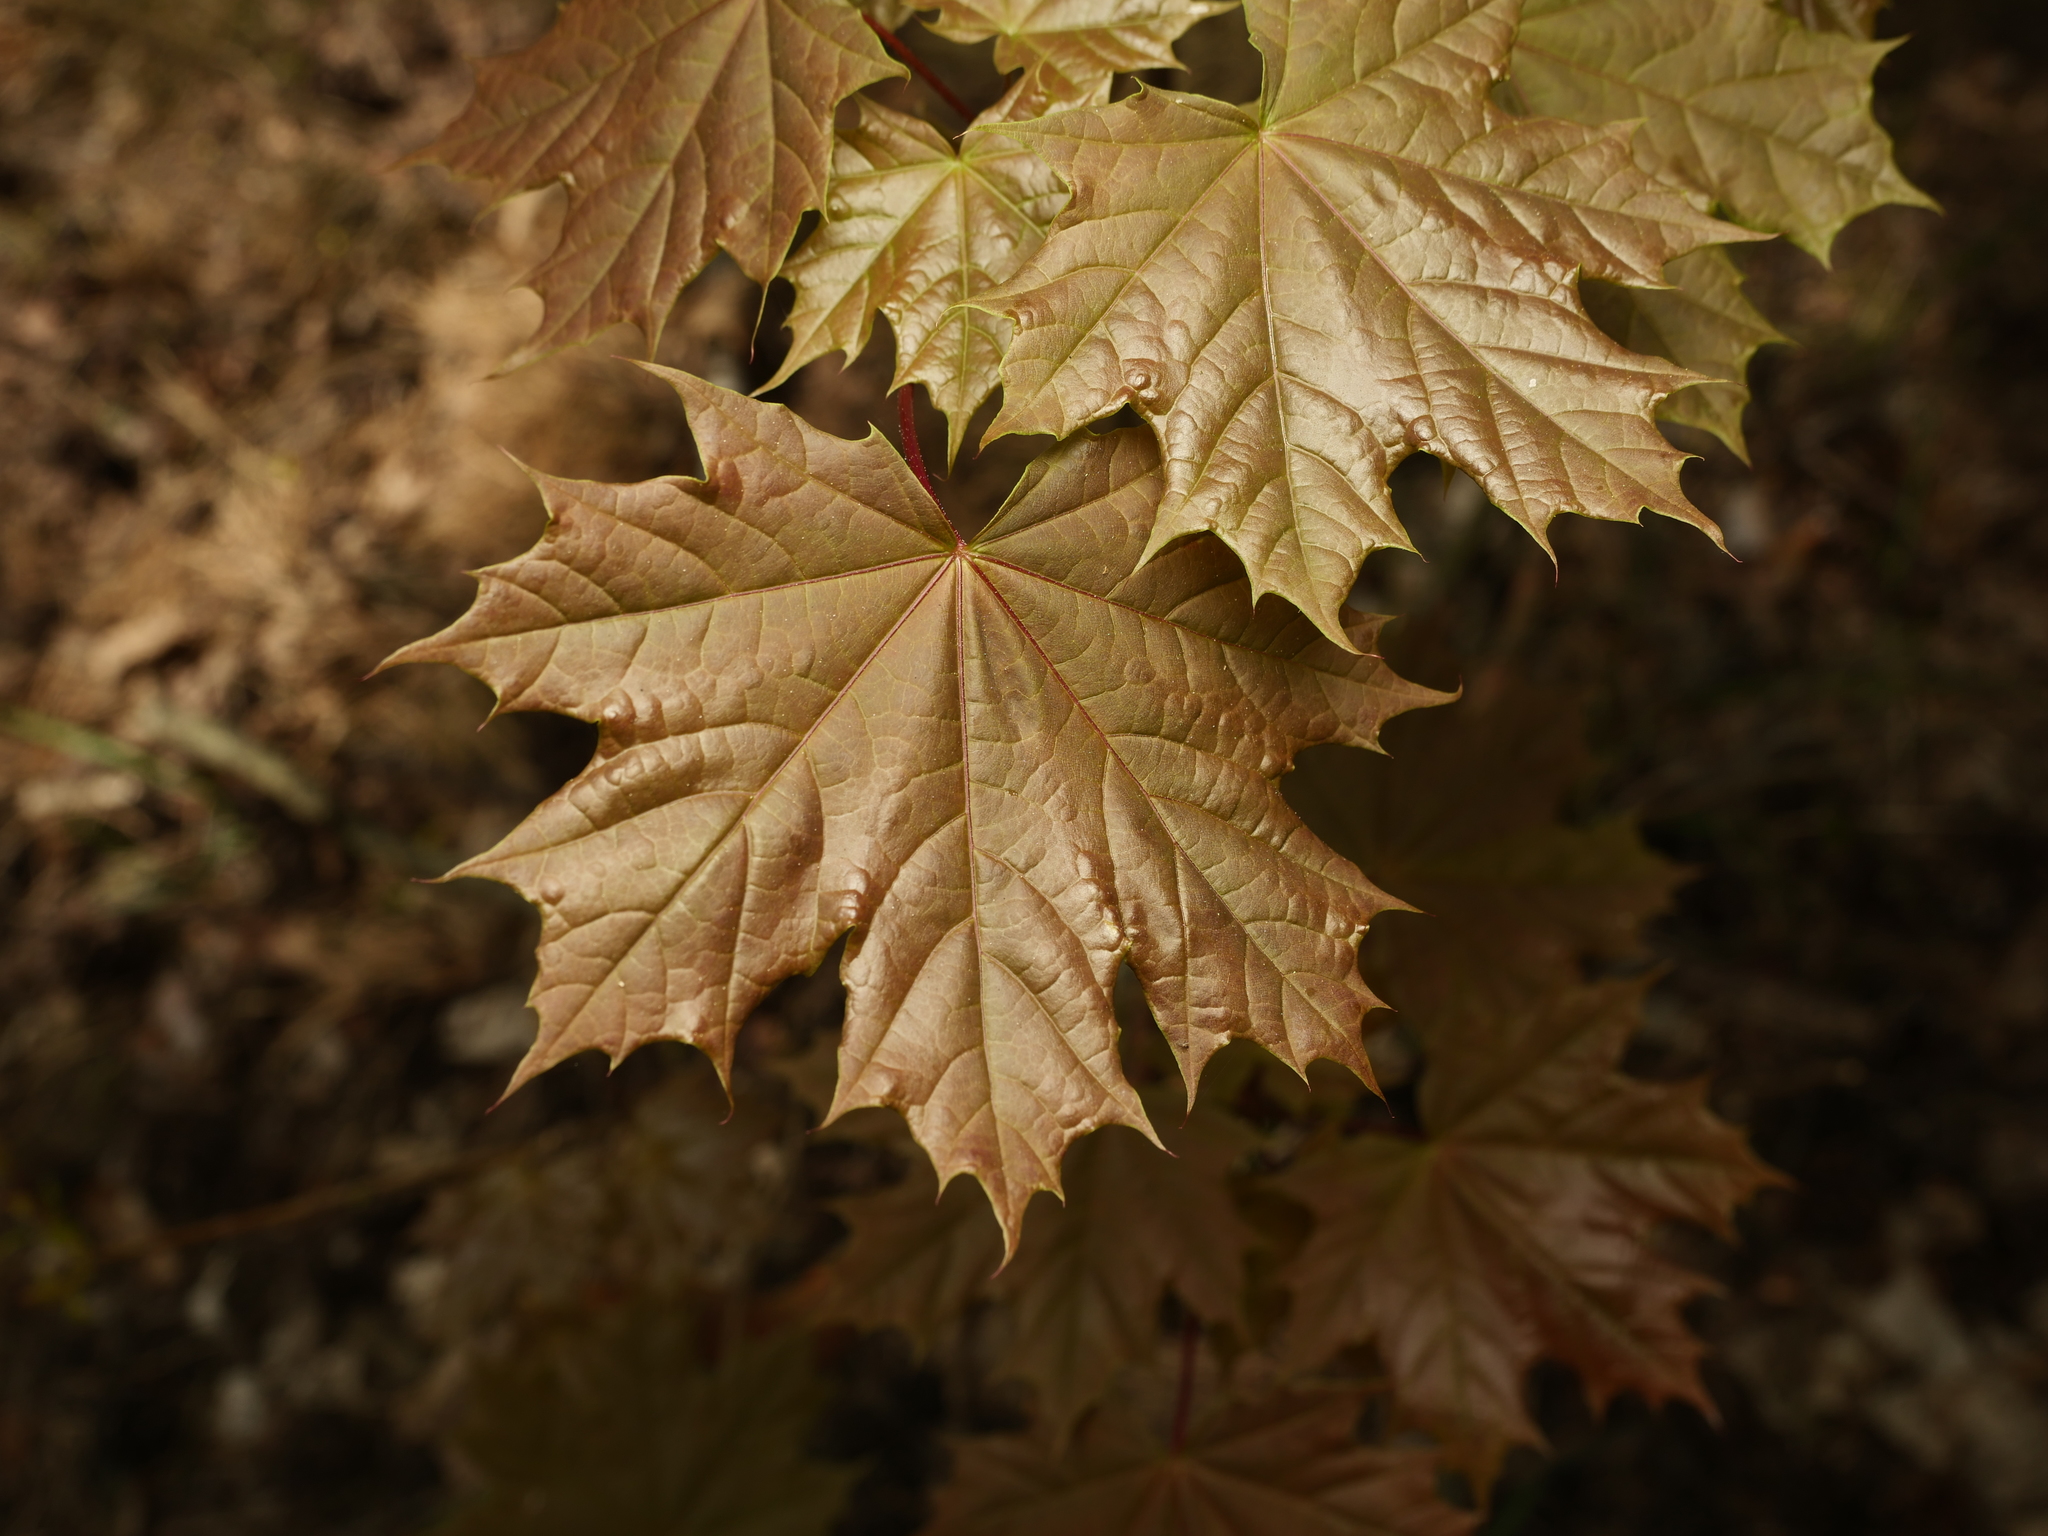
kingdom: Plantae
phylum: Tracheophyta
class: Magnoliopsida
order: Sapindales
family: Sapindaceae
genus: Acer
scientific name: Acer platanoides
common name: Norway maple
